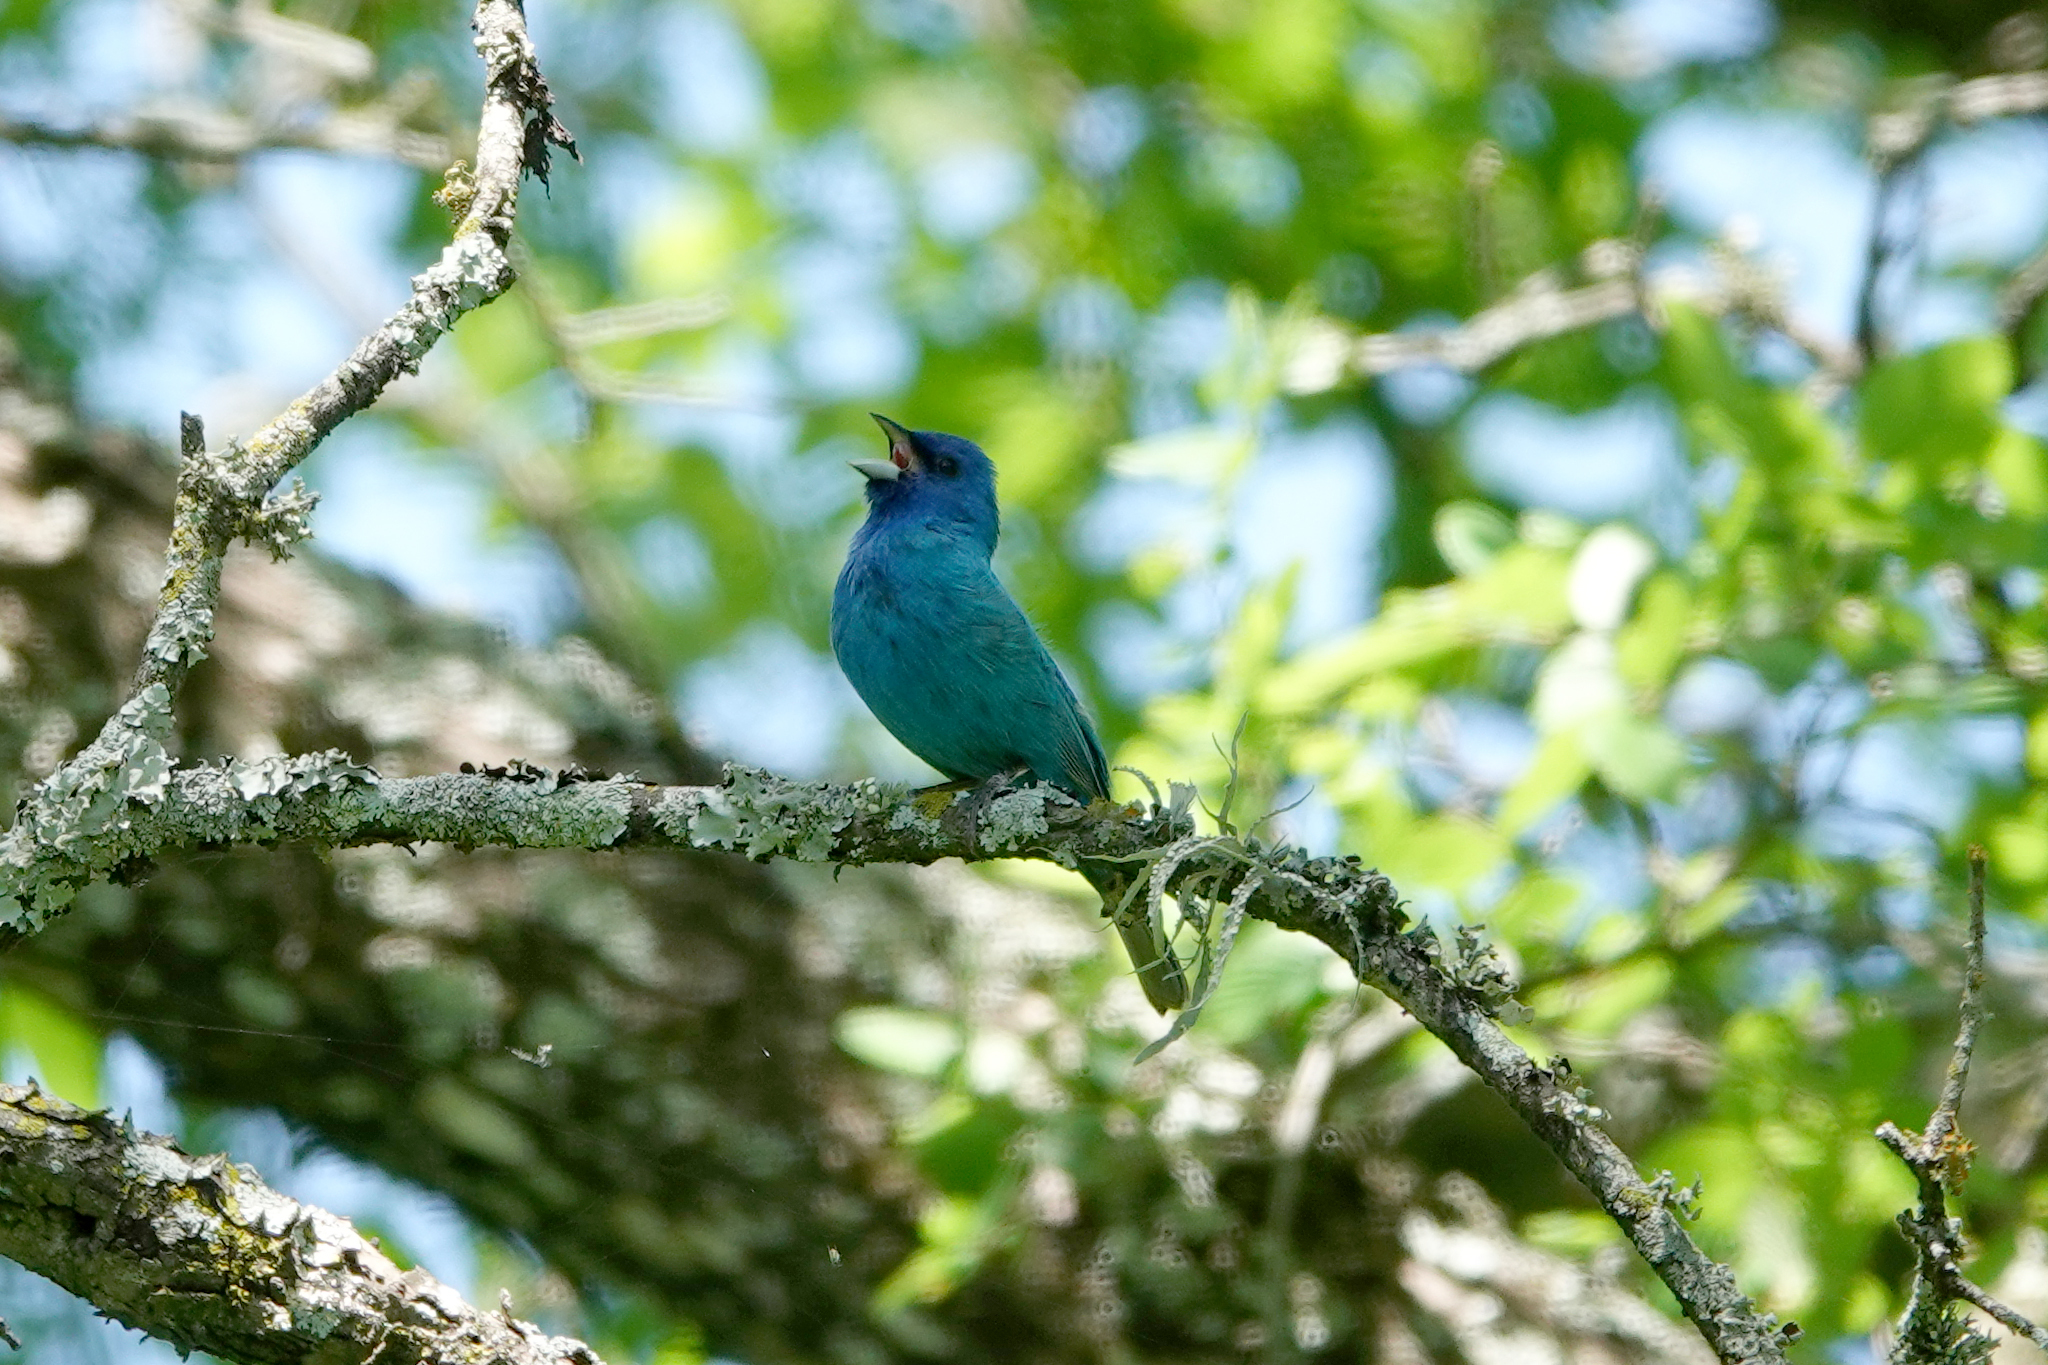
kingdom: Animalia
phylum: Chordata
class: Aves
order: Passeriformes
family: Cardinalidae
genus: Passerina
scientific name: Passerina cyanea
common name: Indigo bunting
